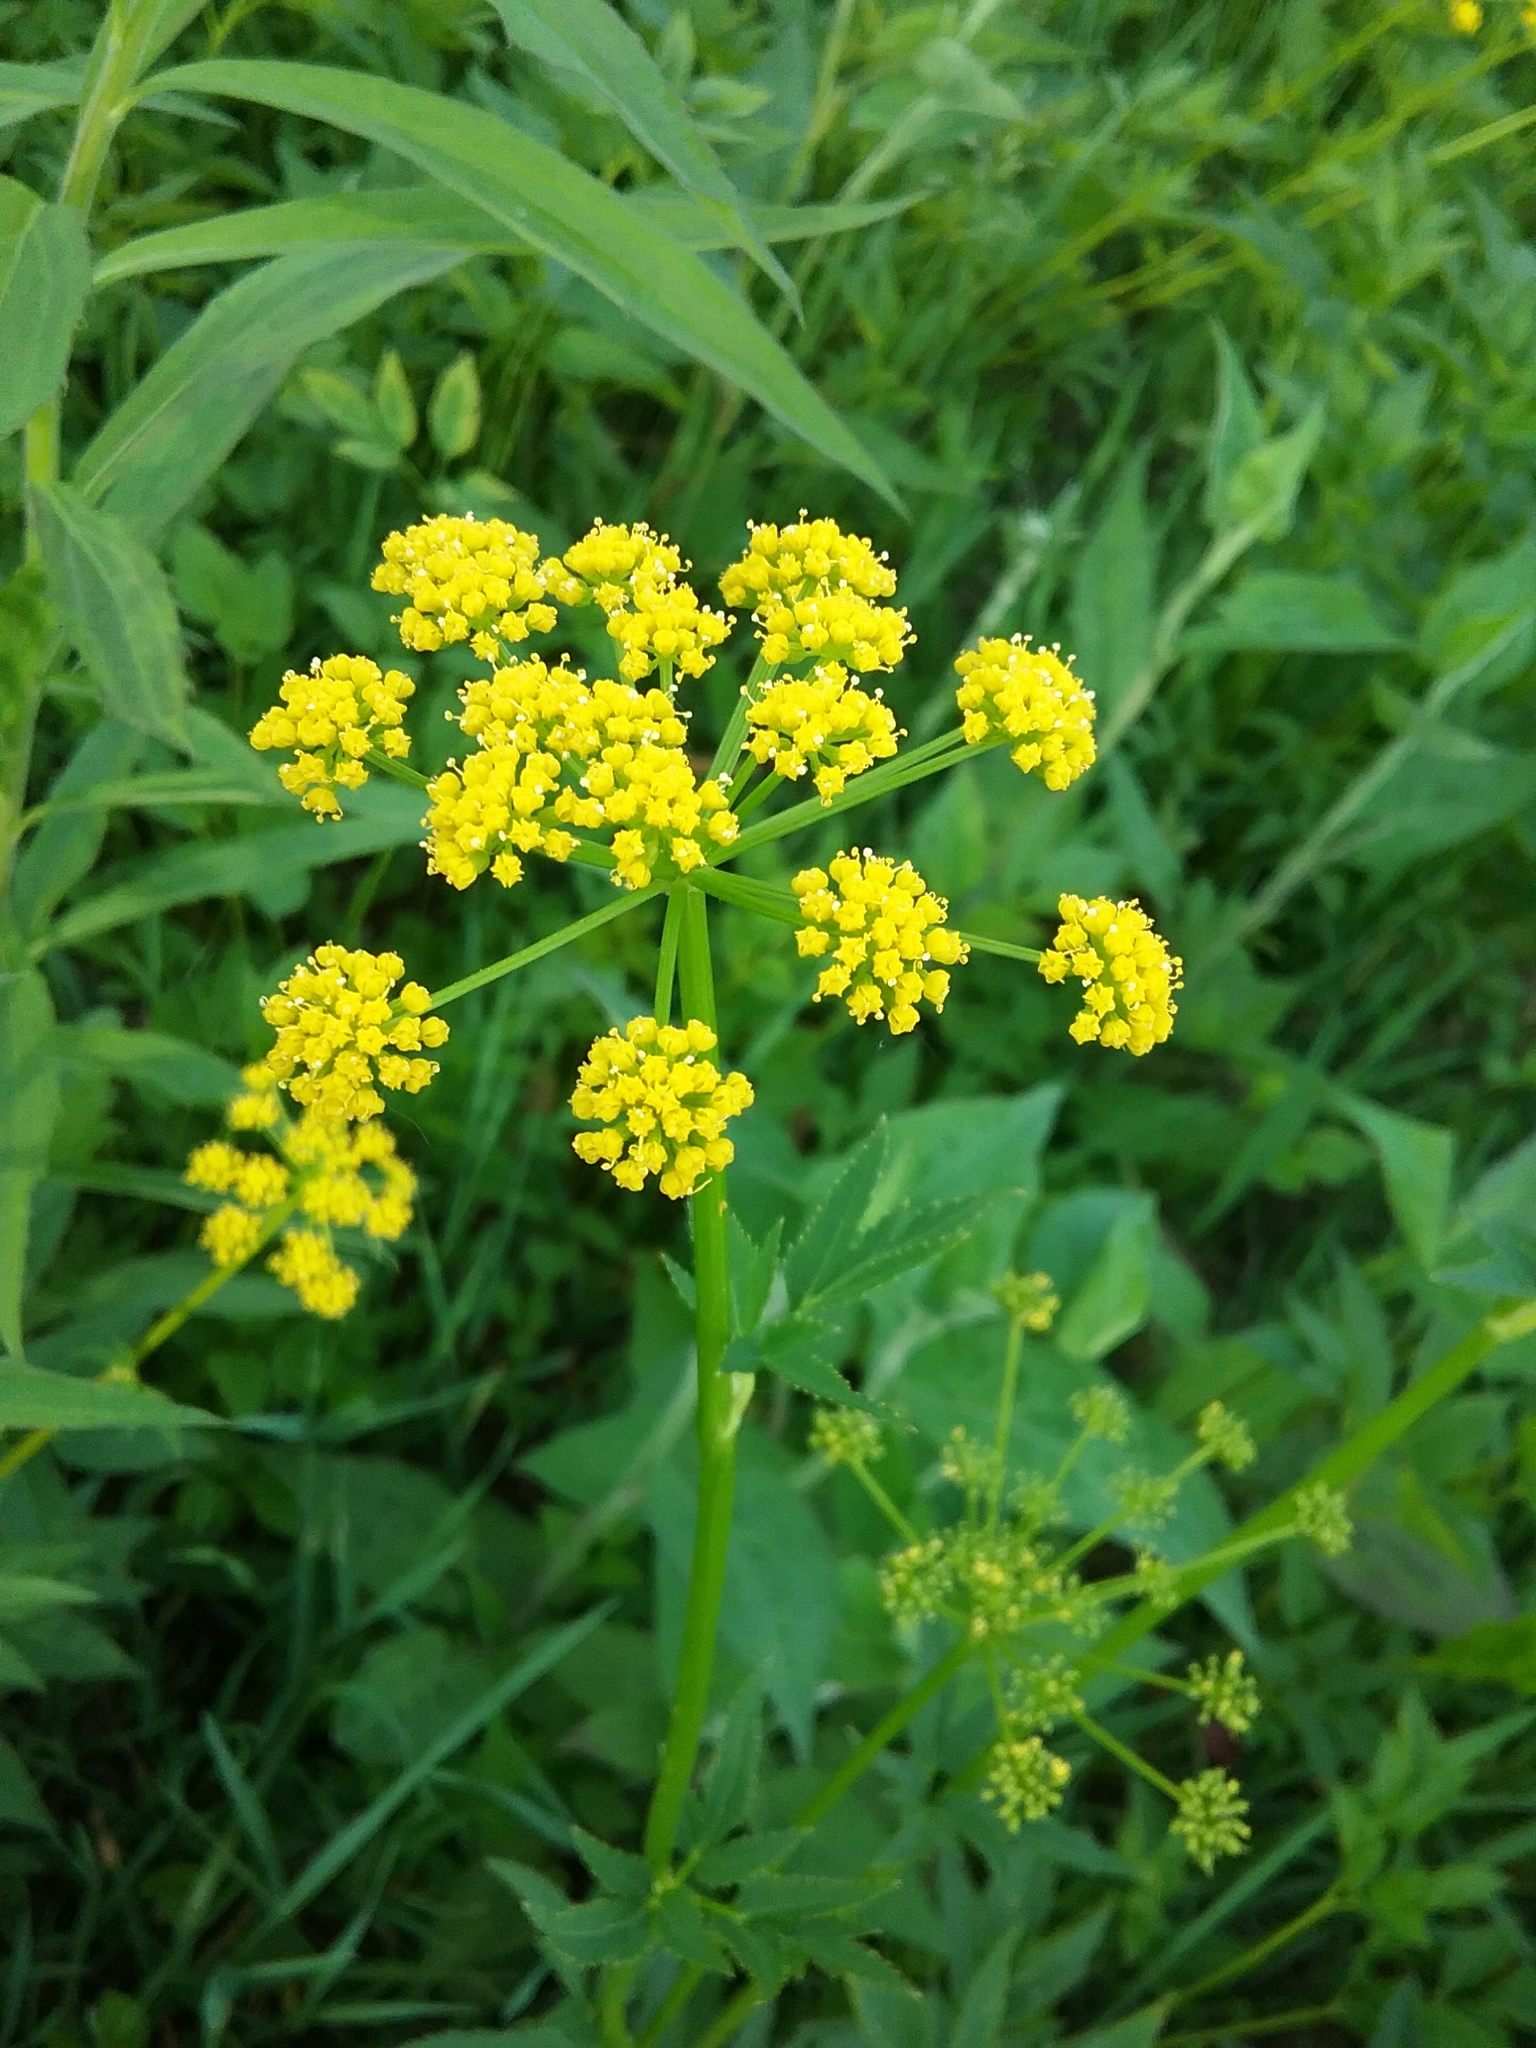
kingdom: Plantae
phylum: Tracheophyta
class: Magnoliopsida
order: Apiales
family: Apiaceae
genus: Zizia
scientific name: Zizia aurea
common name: Golden alexanders
